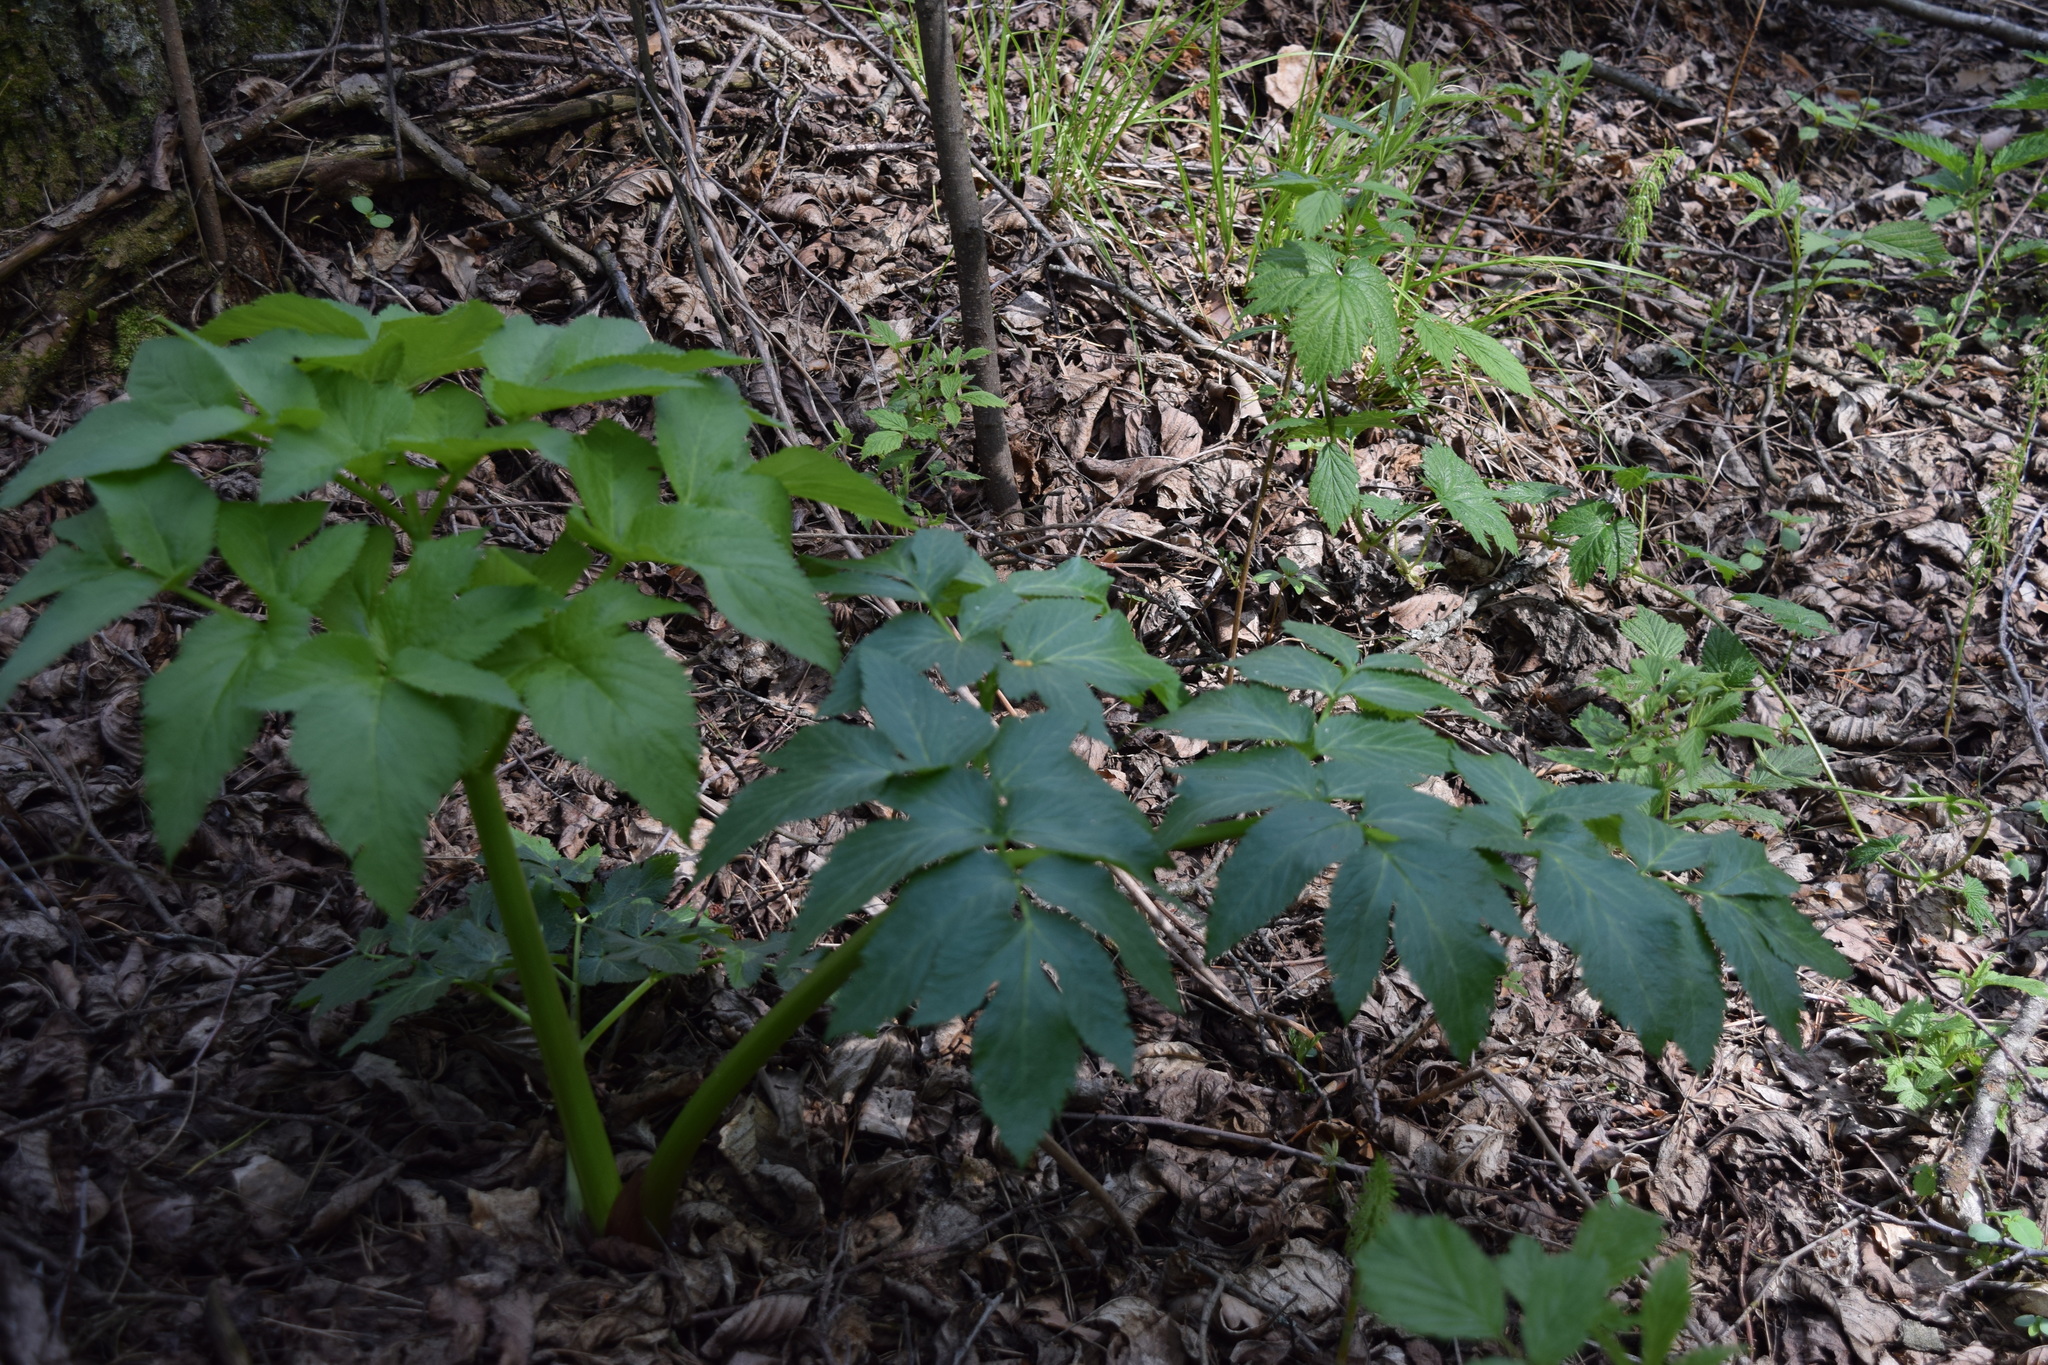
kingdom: Plantae
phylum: Tracheophyta
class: Magnoliopsida
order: Apiales
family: Apiaceae
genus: Angelica
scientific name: Angelica archangelica
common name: Garden angelica
